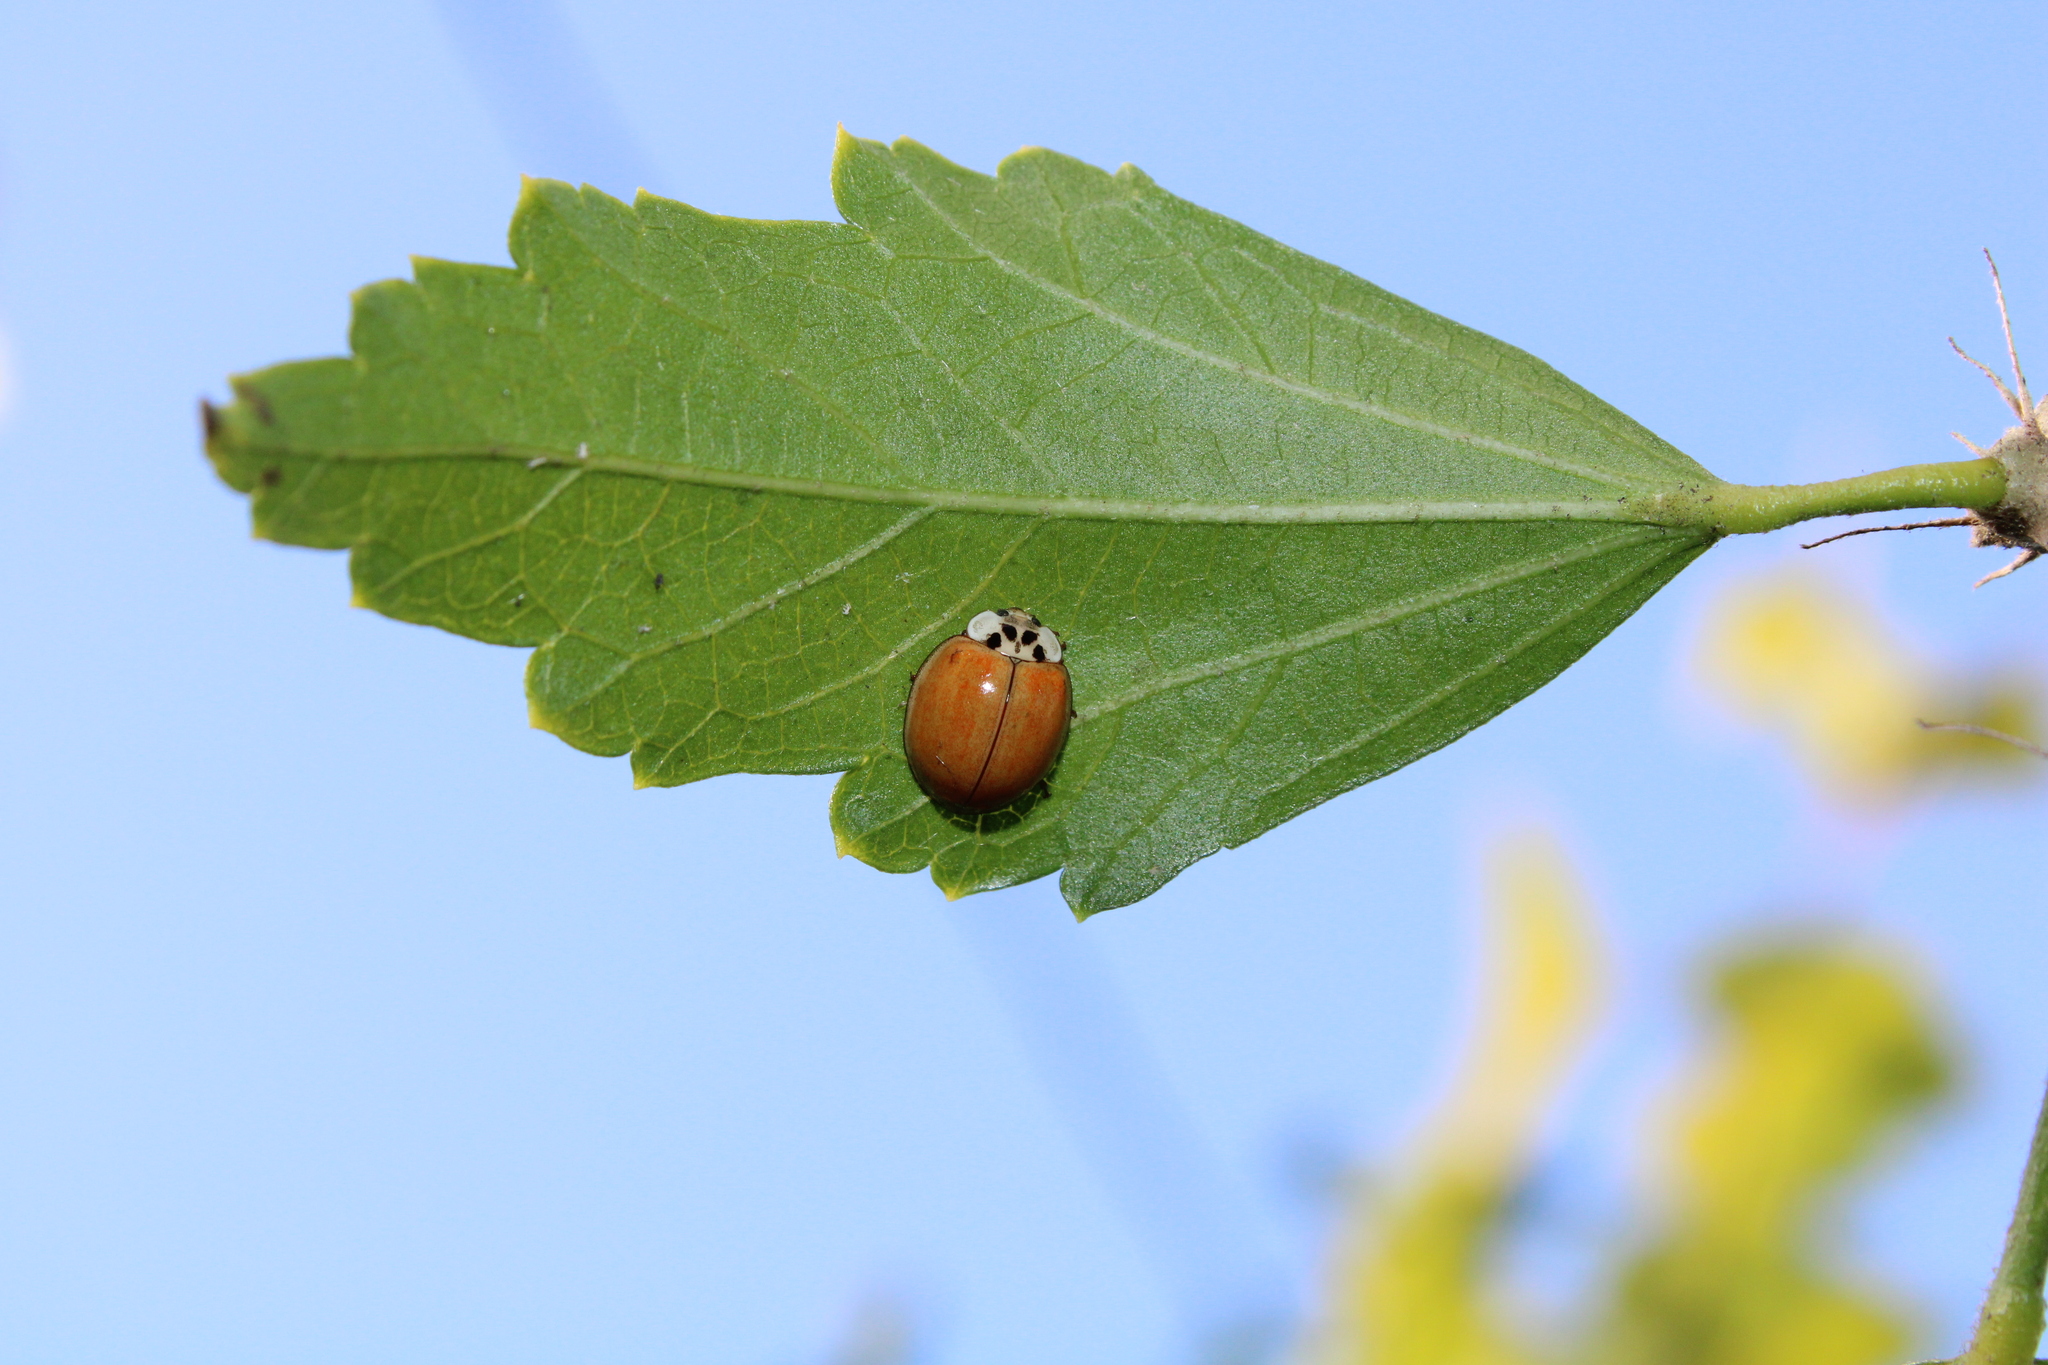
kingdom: Animalia
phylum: Arthropoda
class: Insecta
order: Coleoptera
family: Coccinellidae
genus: Harmonia
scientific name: Harmonia axyridis
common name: Harlequin ladybird
